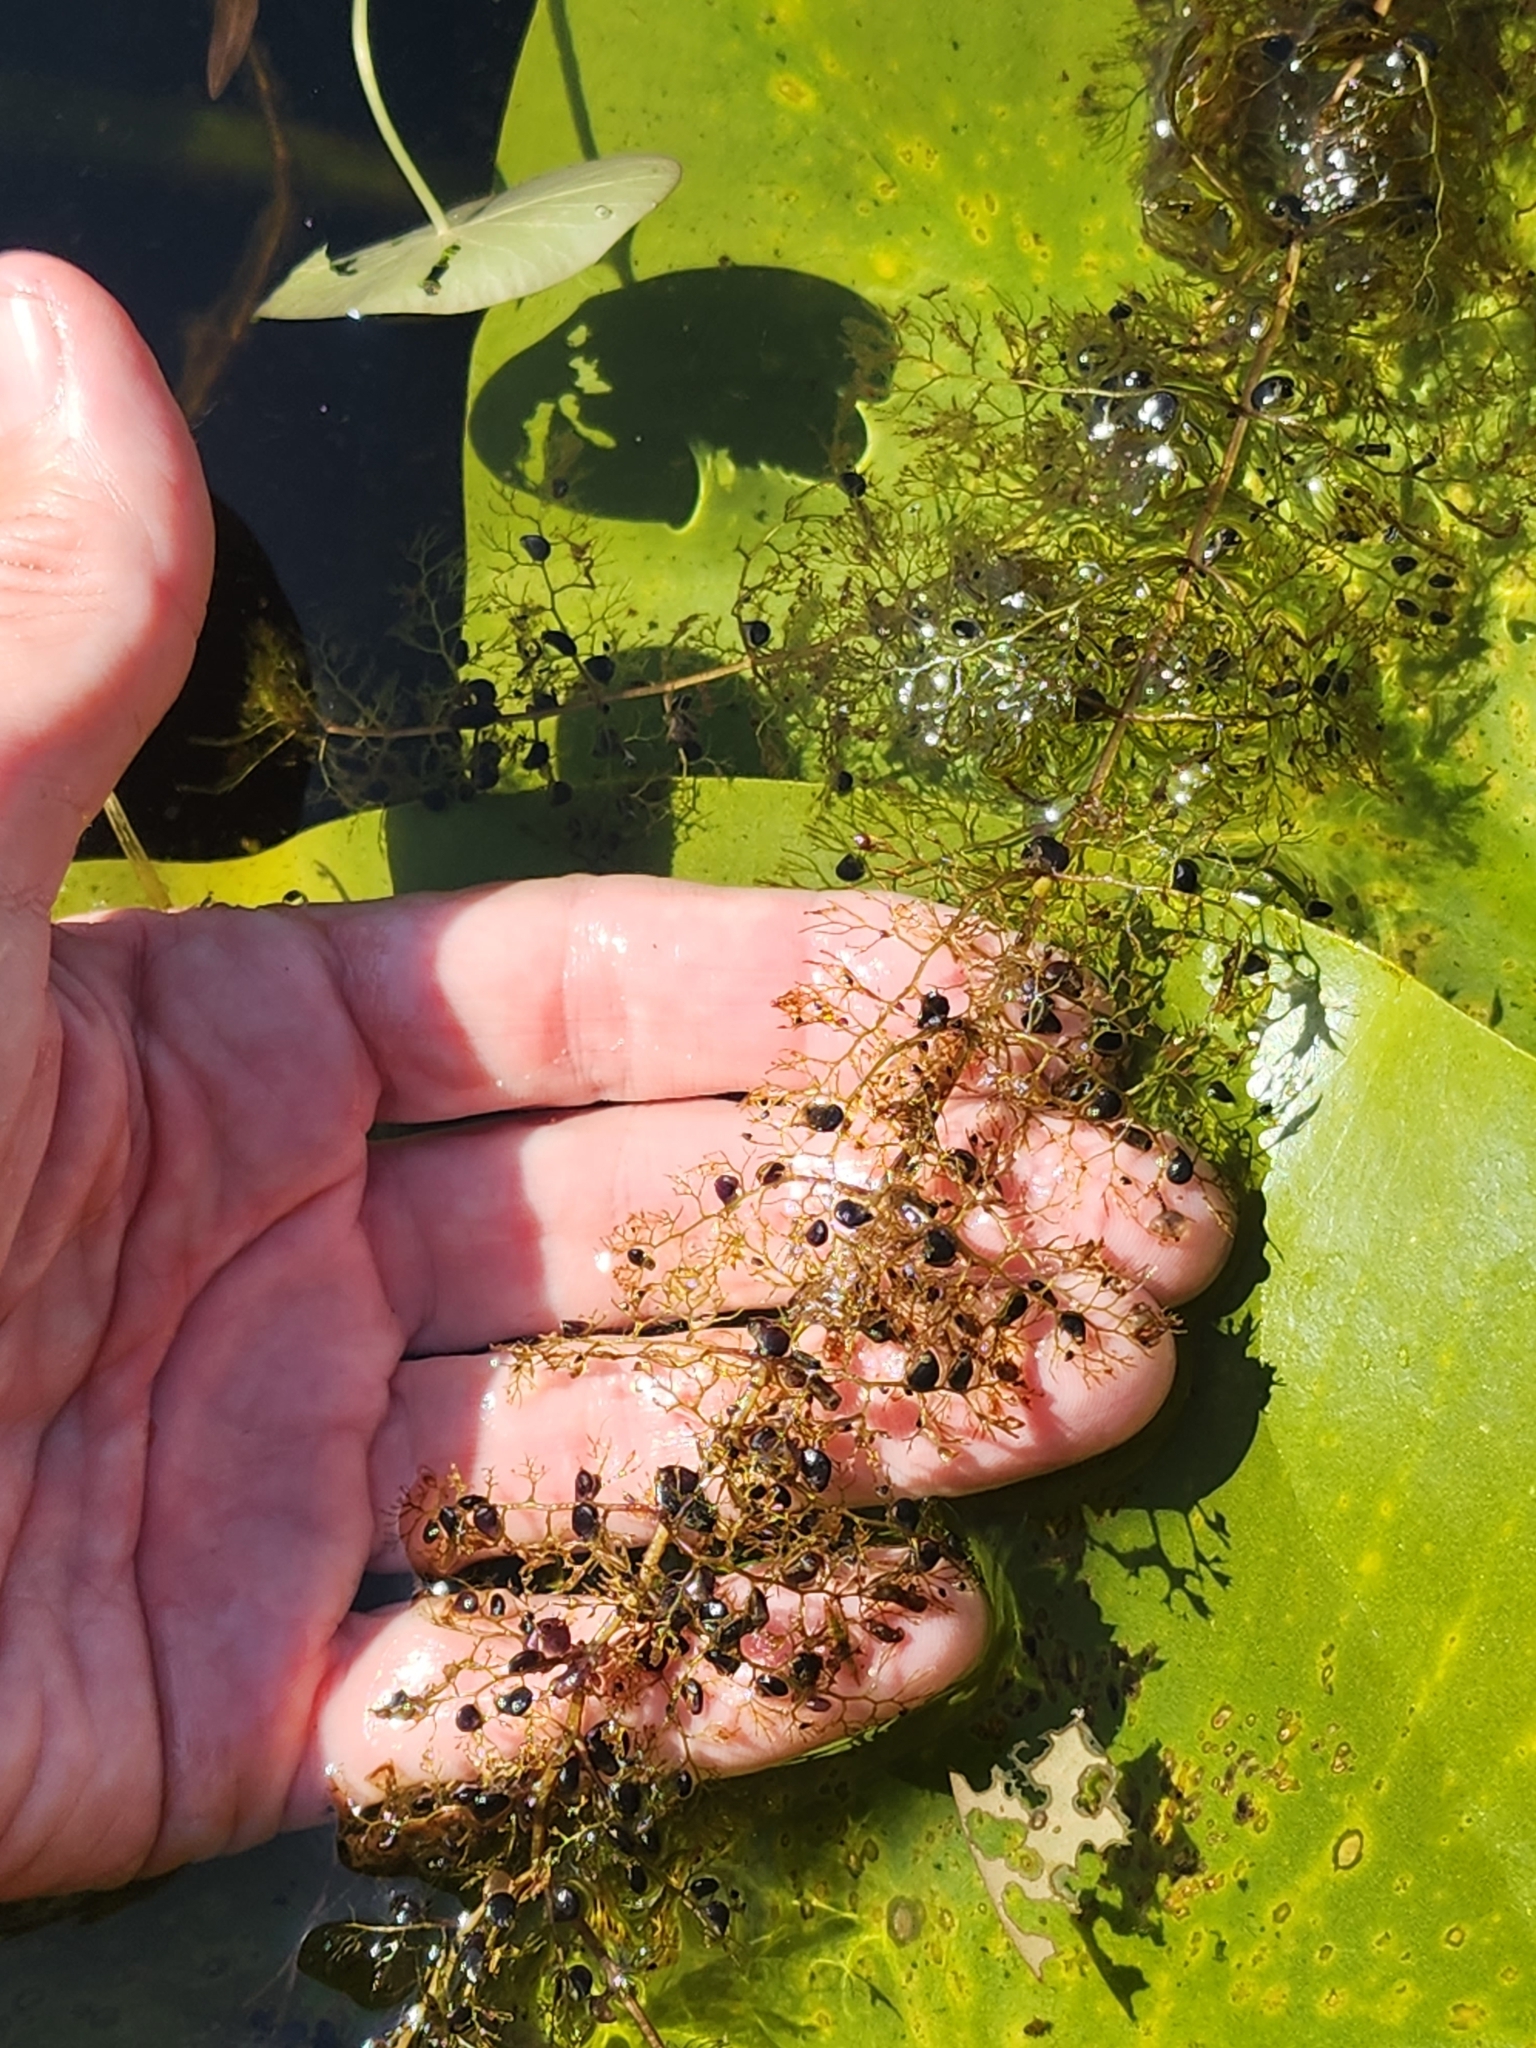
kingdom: Plantae
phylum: Tracheophyta
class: Magnoliopsida
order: Lamiales
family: Lentibulariaceae
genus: Utricularia
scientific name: Utricularia macrorhiza
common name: Common bladderwort
